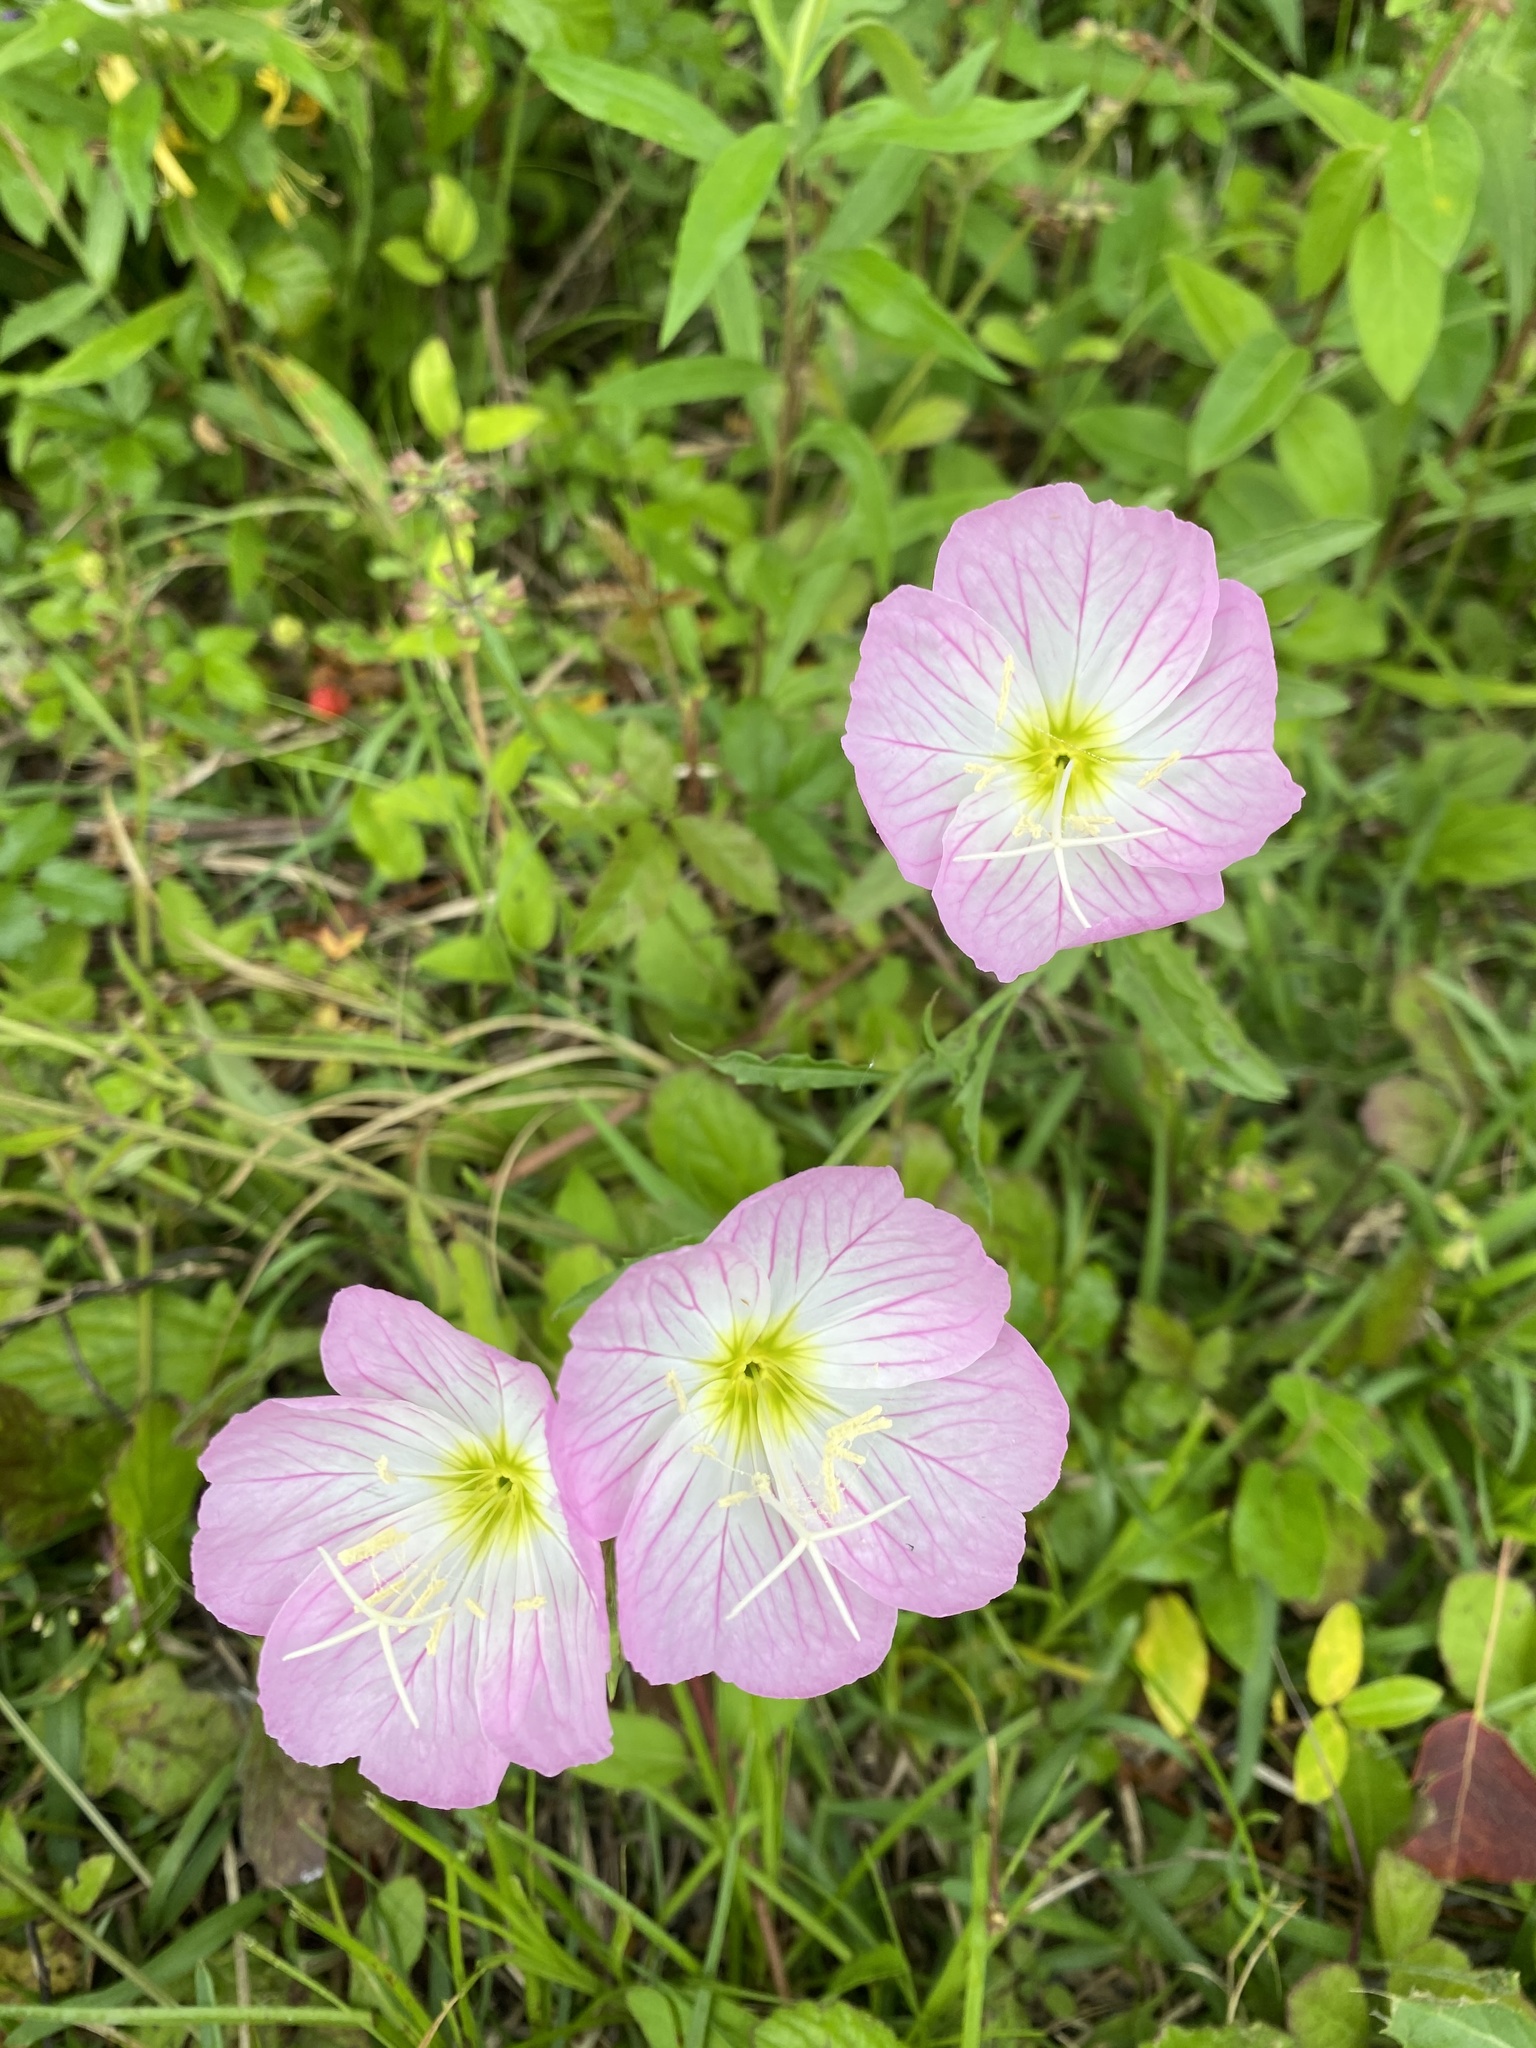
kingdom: Plantae
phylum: Tracheophyta
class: Magnoliopsida
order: Myrtales
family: Onagraceae
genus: Oenothera
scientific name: Oenothera speciosa
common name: White evening-primrose
